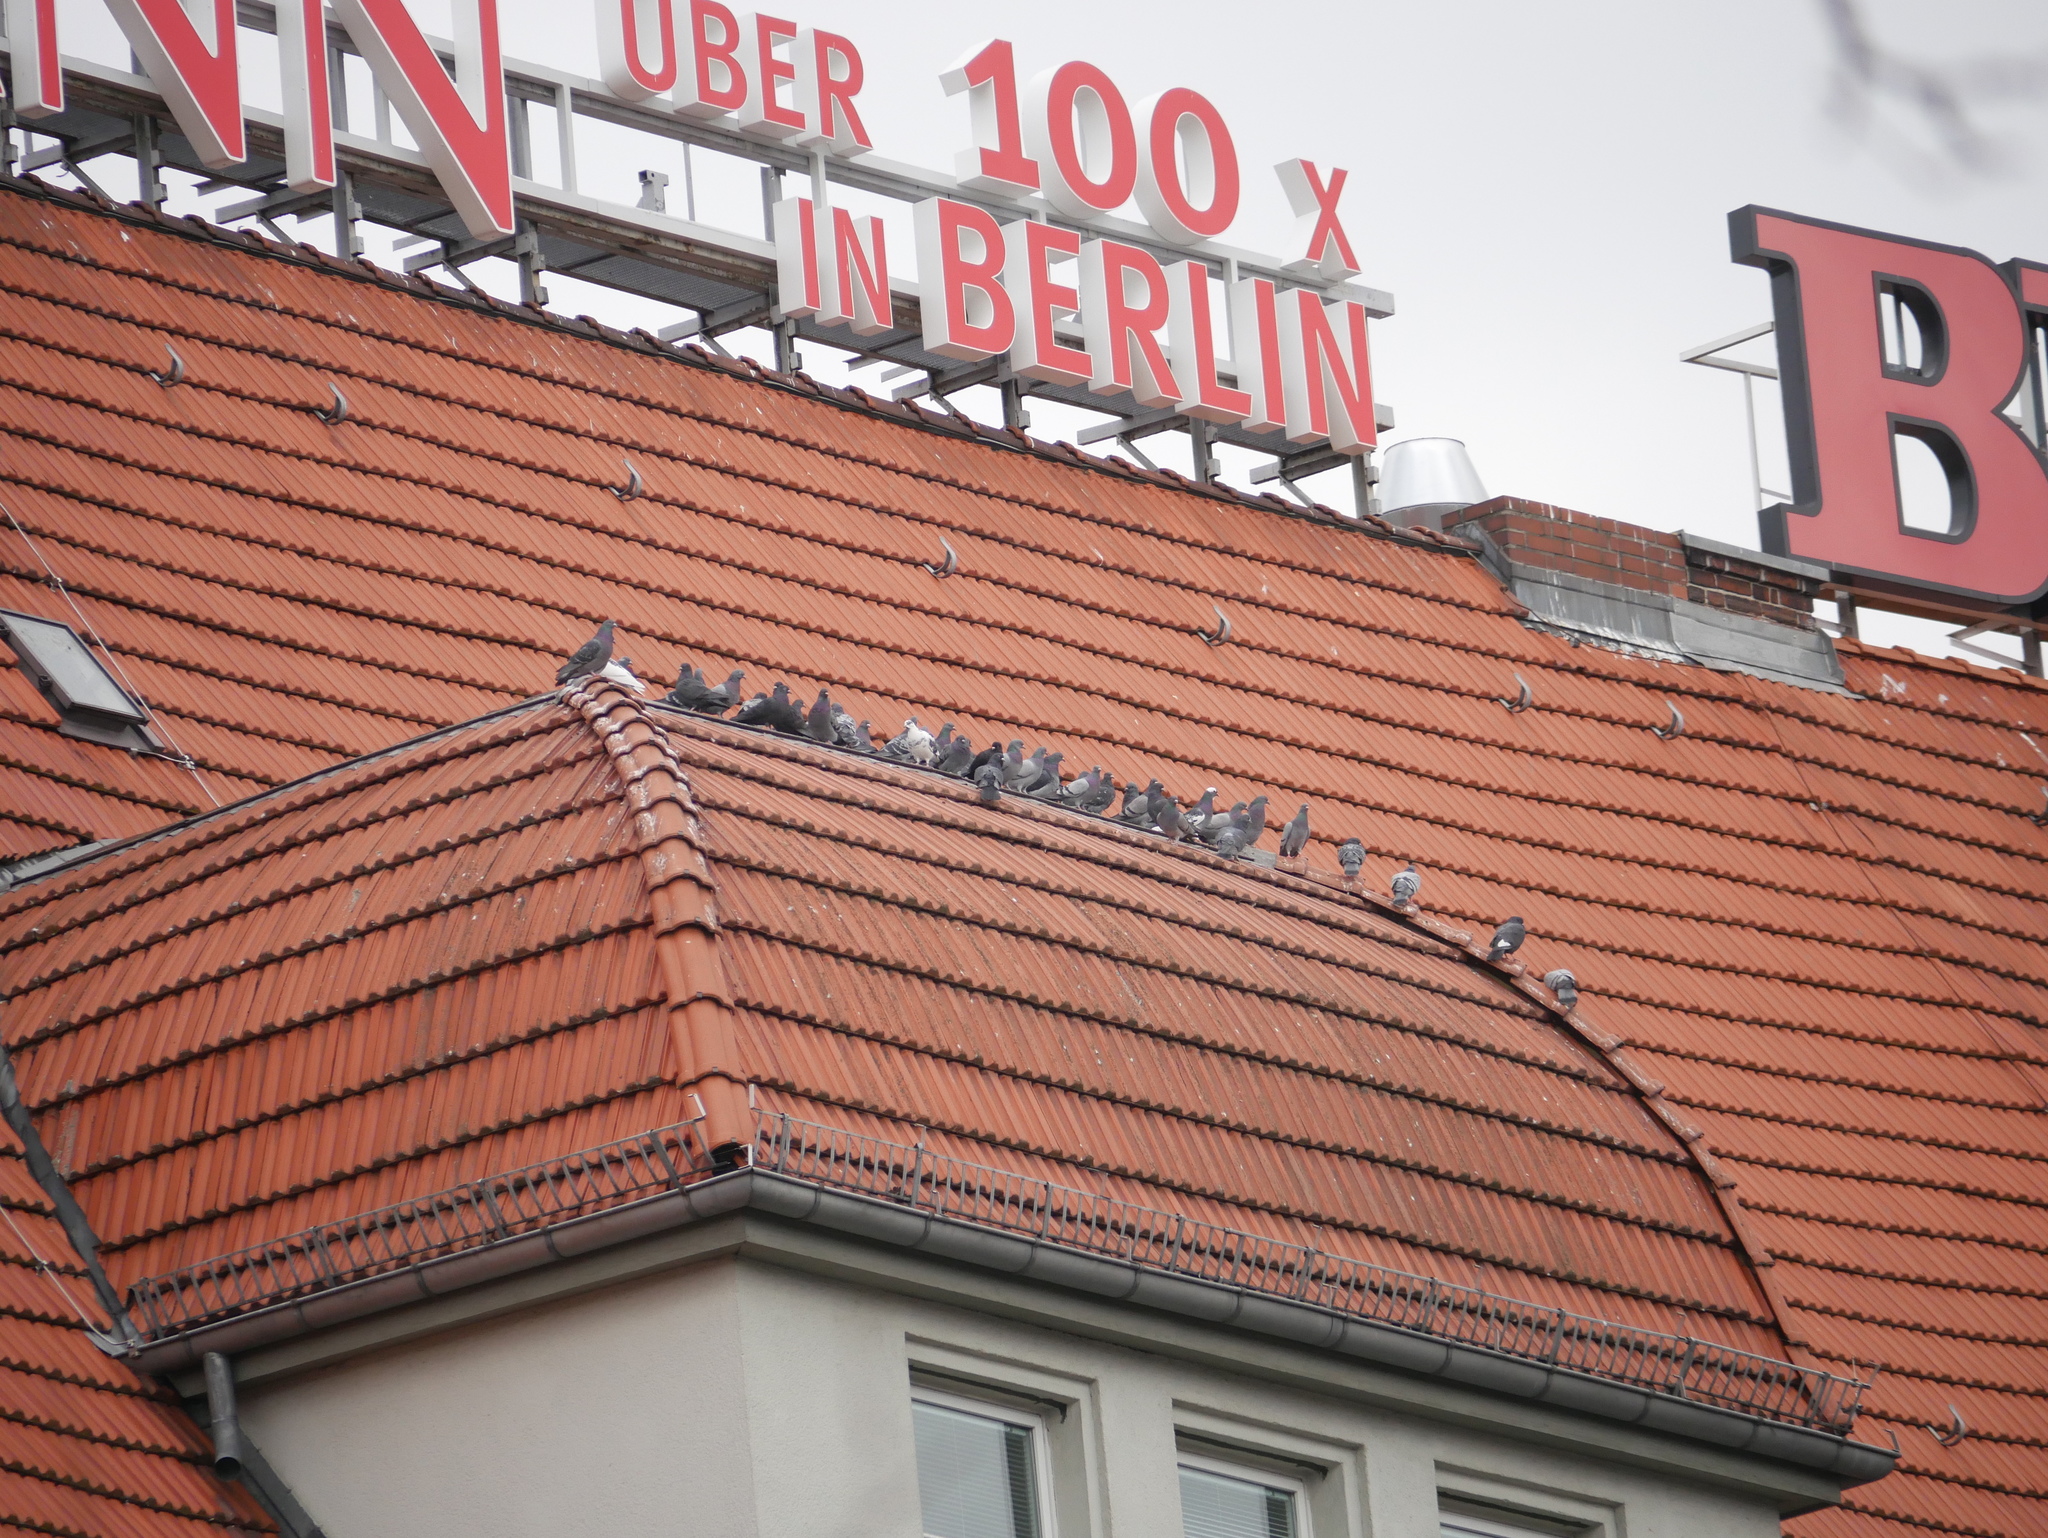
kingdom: Animalia
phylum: Chordata
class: Aves
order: Columbiformes
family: Columbidae
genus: Columba
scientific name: Columba livia
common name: Rock pigeon
